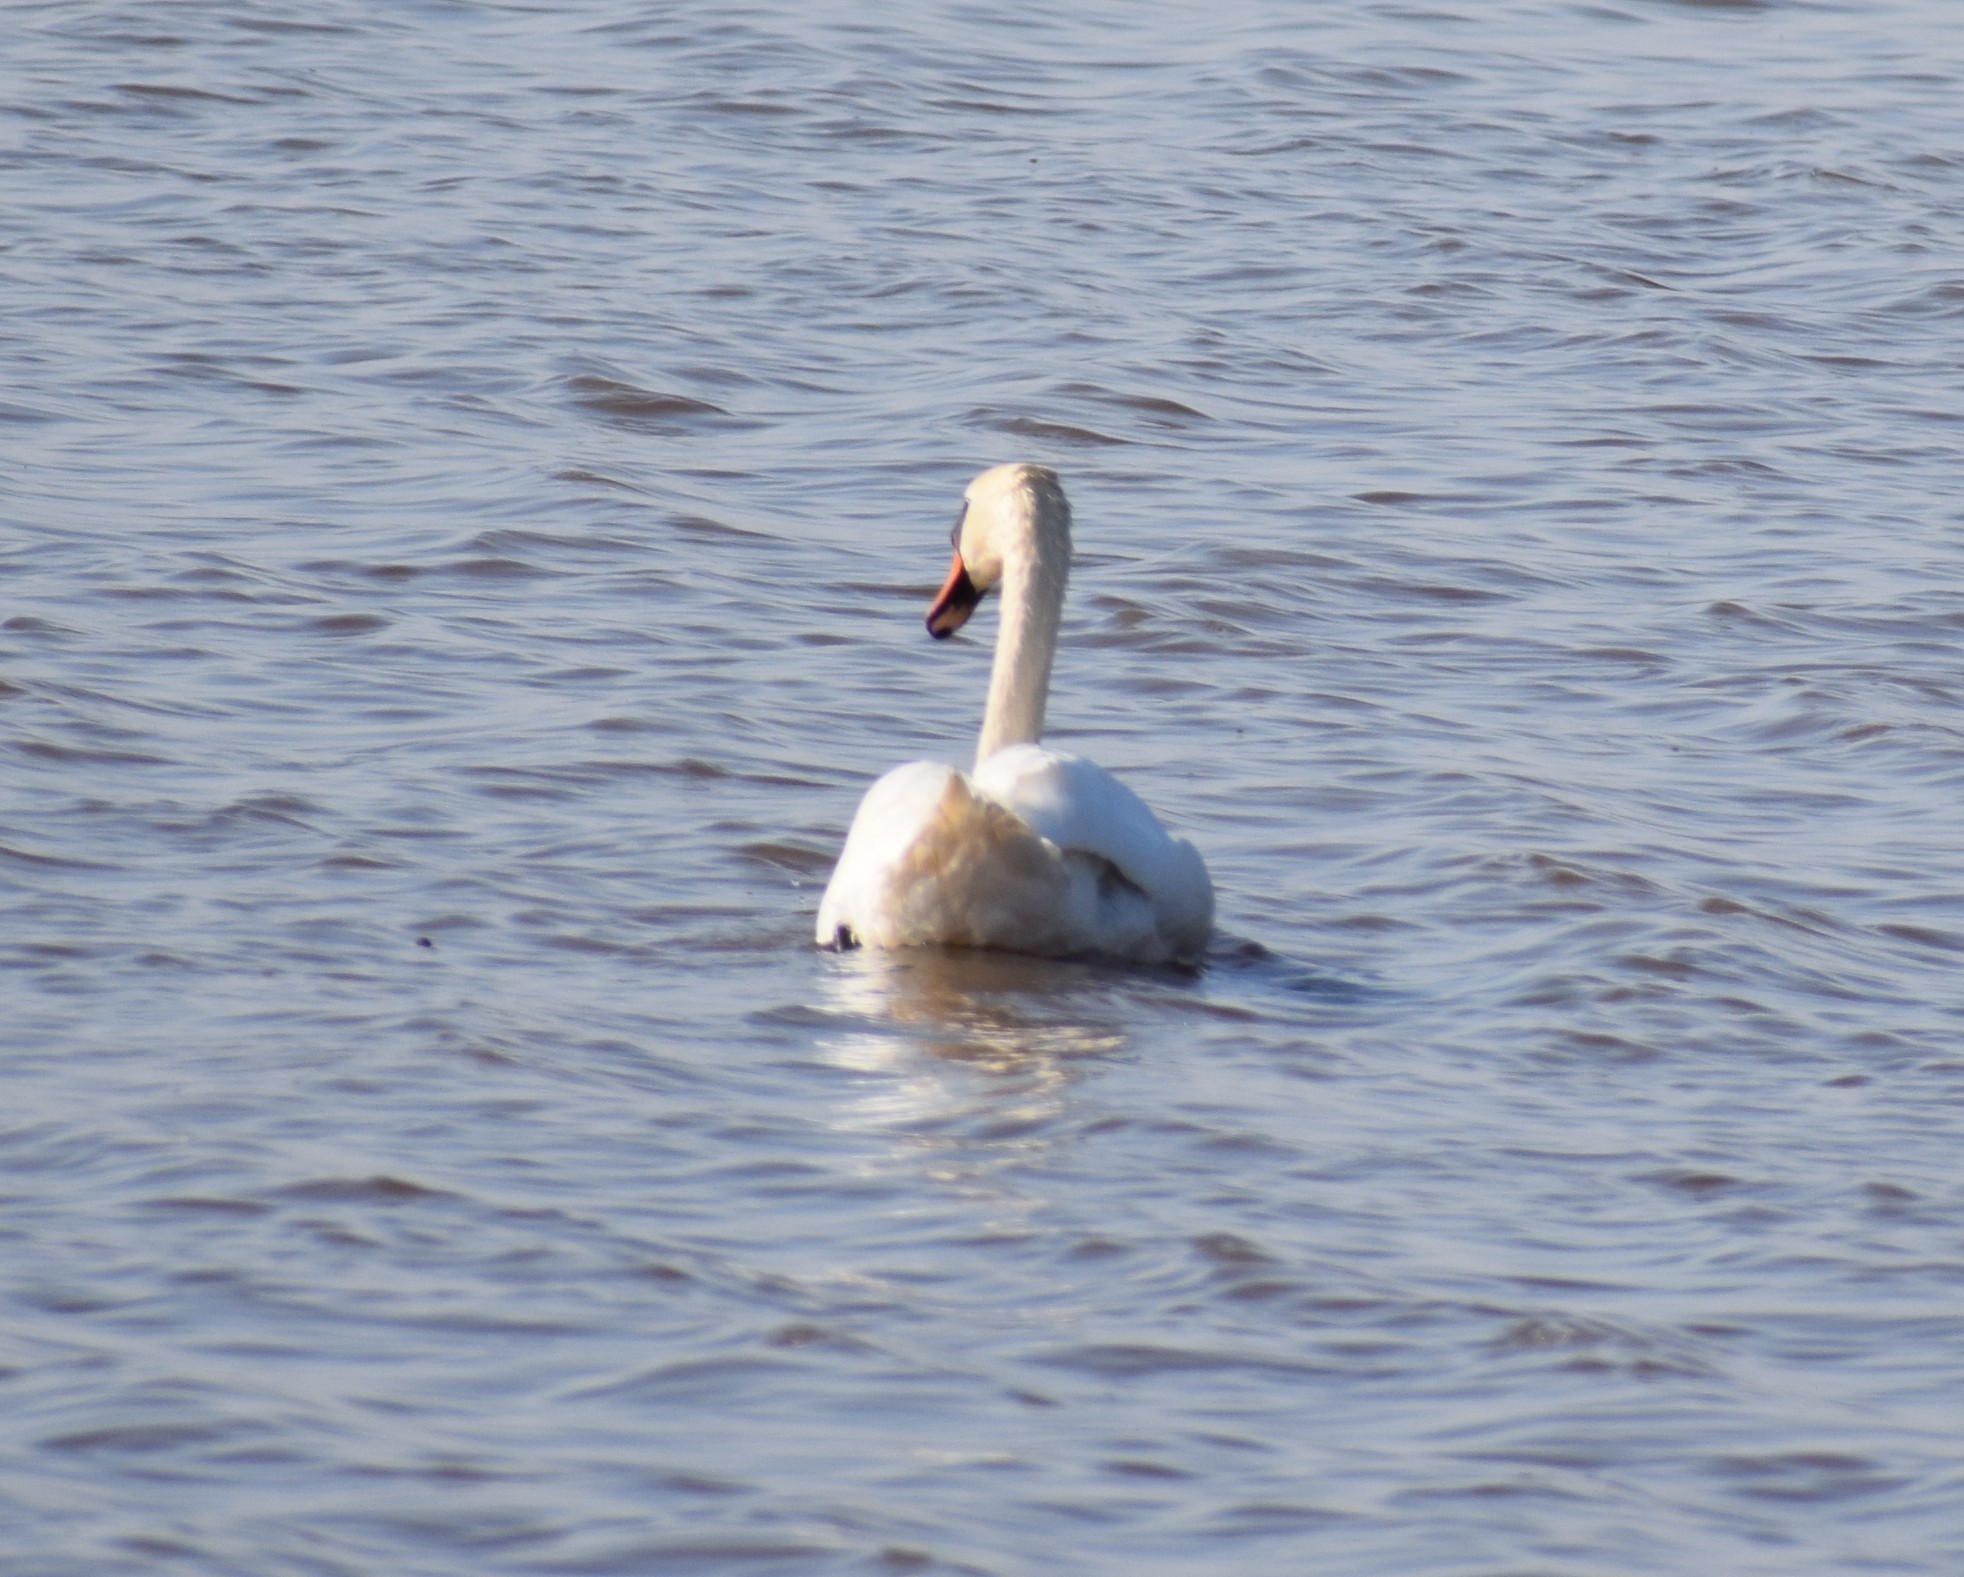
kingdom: Animalia
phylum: Chordata
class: Aves
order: Anseriformes
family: Anatidae
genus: Cygnus
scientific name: Cygnus olor
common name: Mute swan
